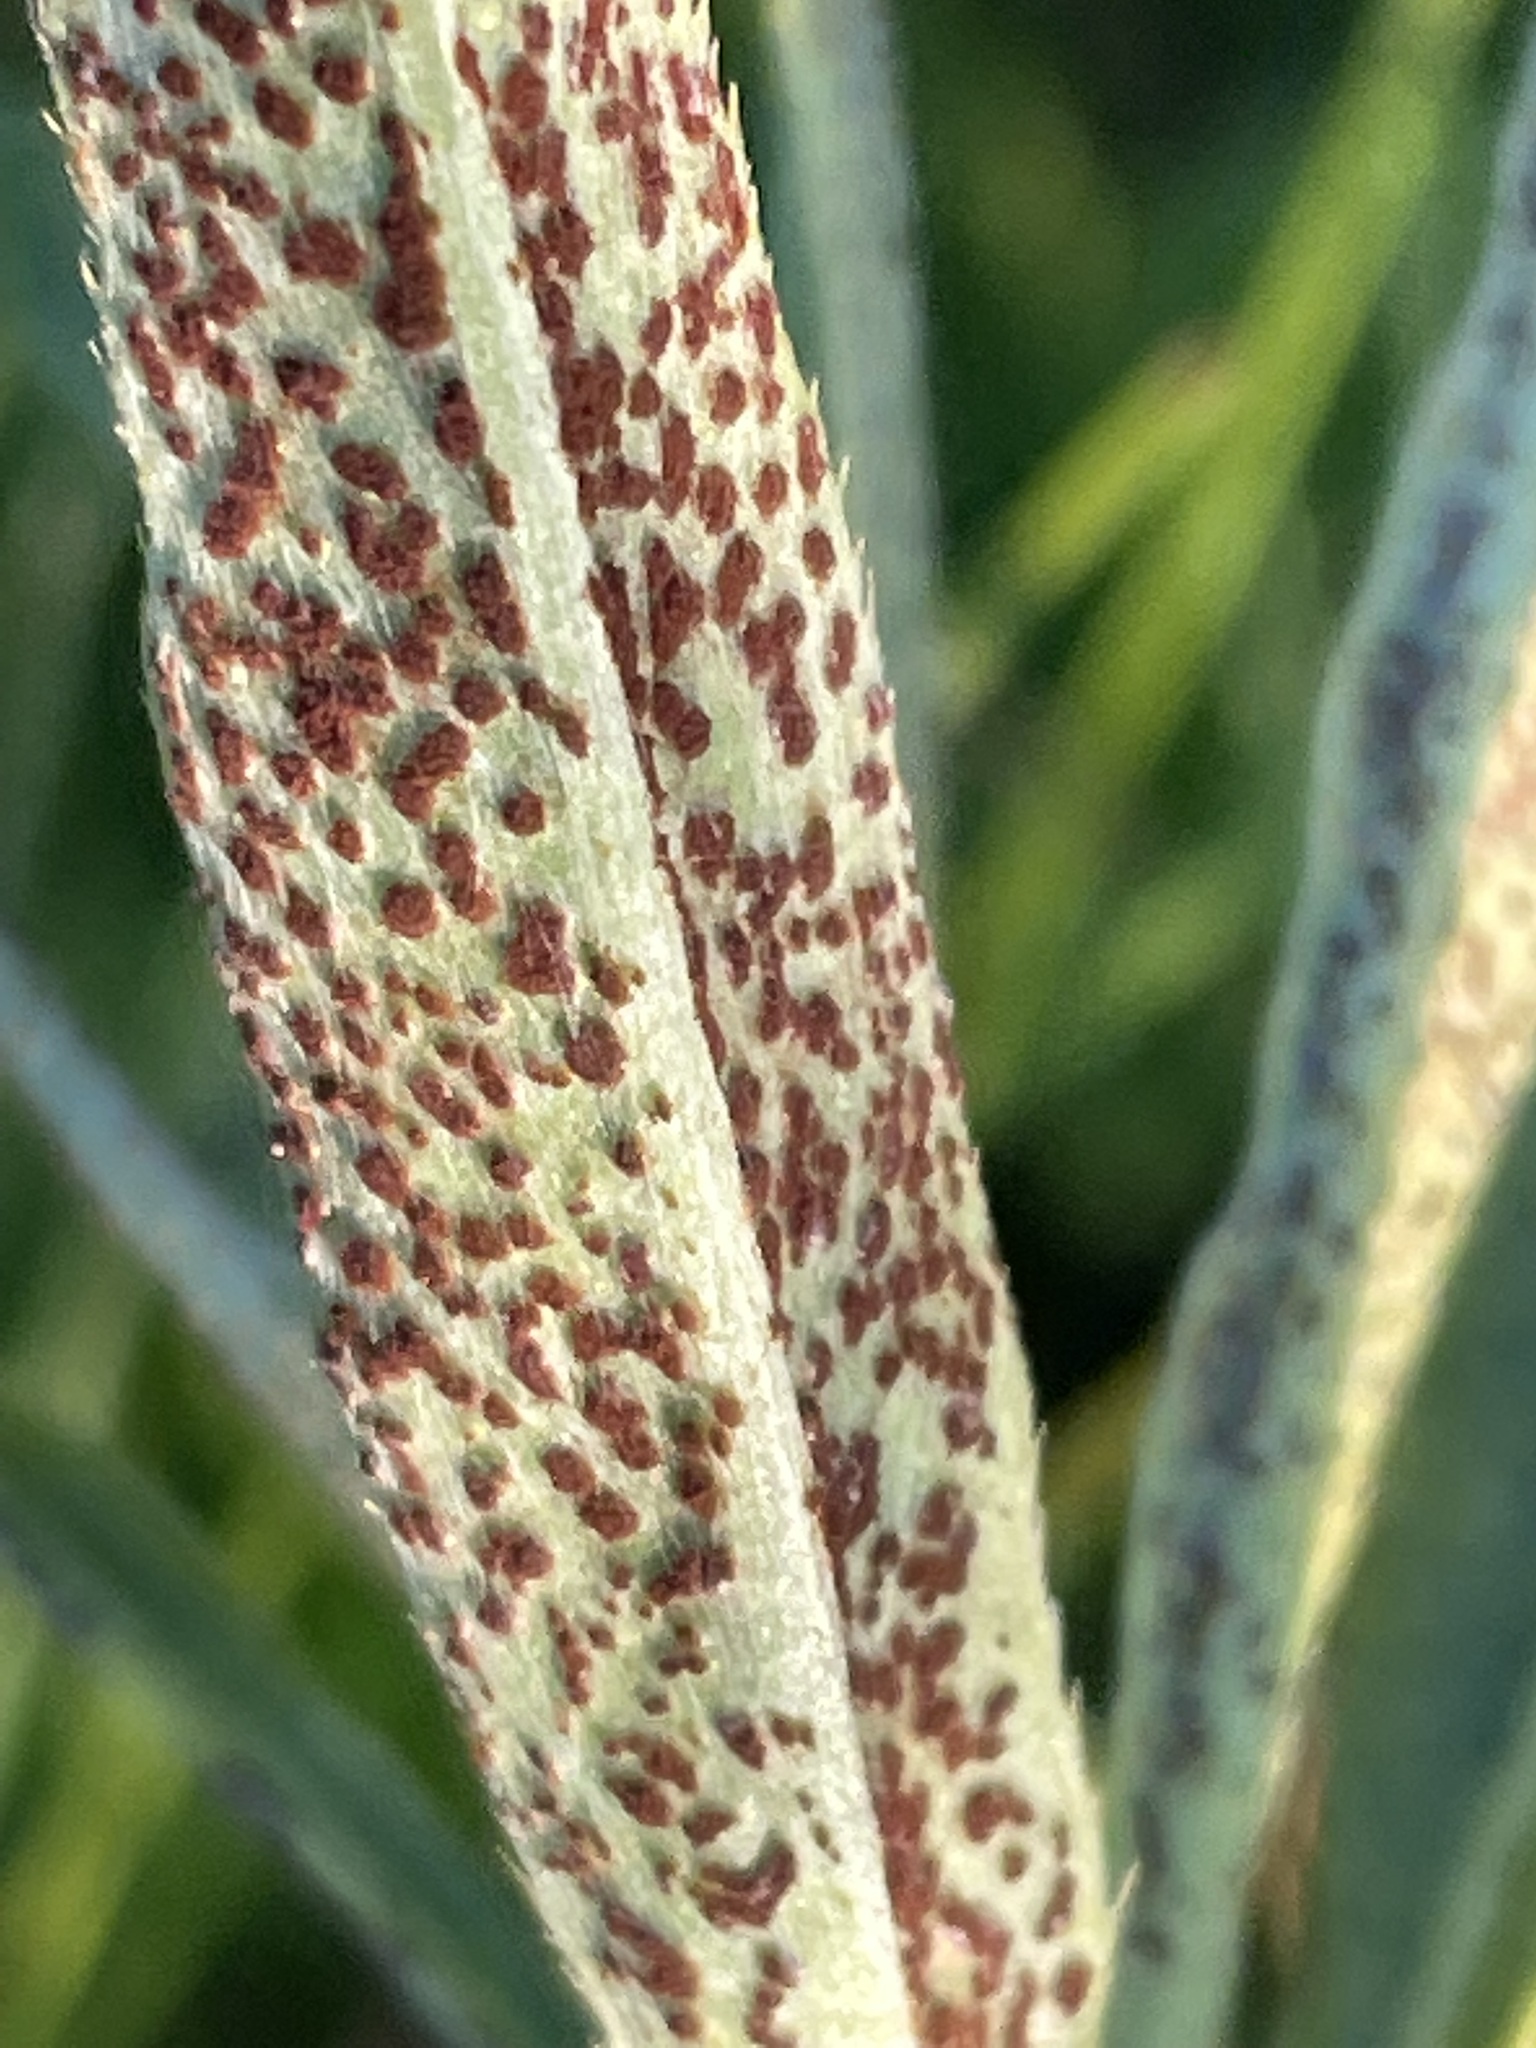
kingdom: Fungi
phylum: Basidiomycota
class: Pucciniomycetes
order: Pucciniales
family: Pucciniaceae
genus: Puccinia
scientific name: Puccinia suaveolens
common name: Thistle rust
